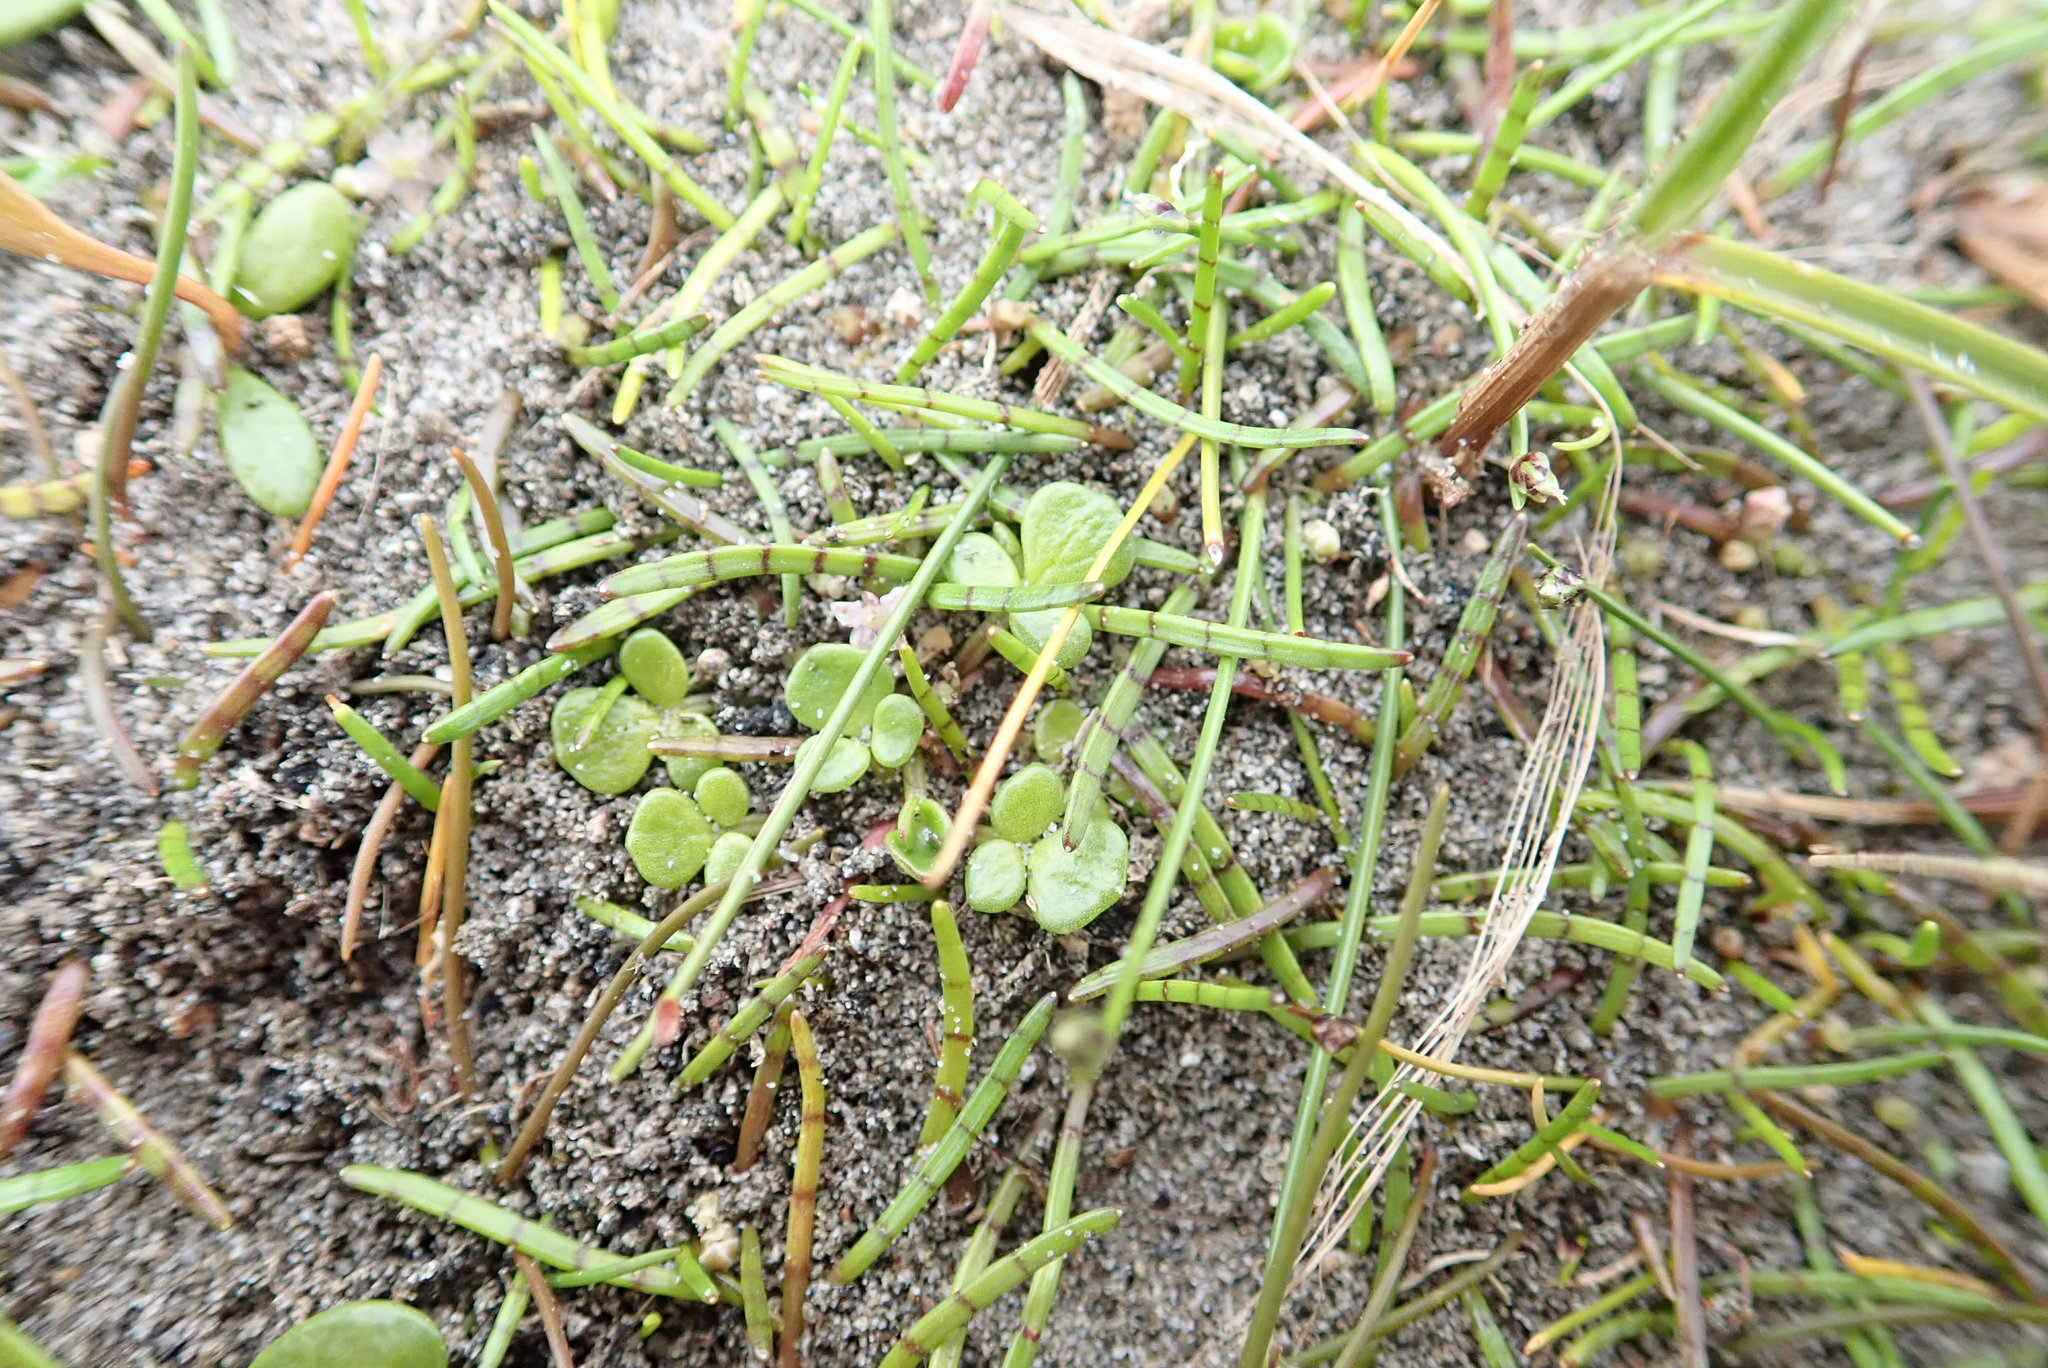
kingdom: Plantae
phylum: Tracheophyta
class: Magnoliopsida
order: Ranunculales
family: Ranunculaceae
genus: Ranunculus
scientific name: Ranunculus acaulis
